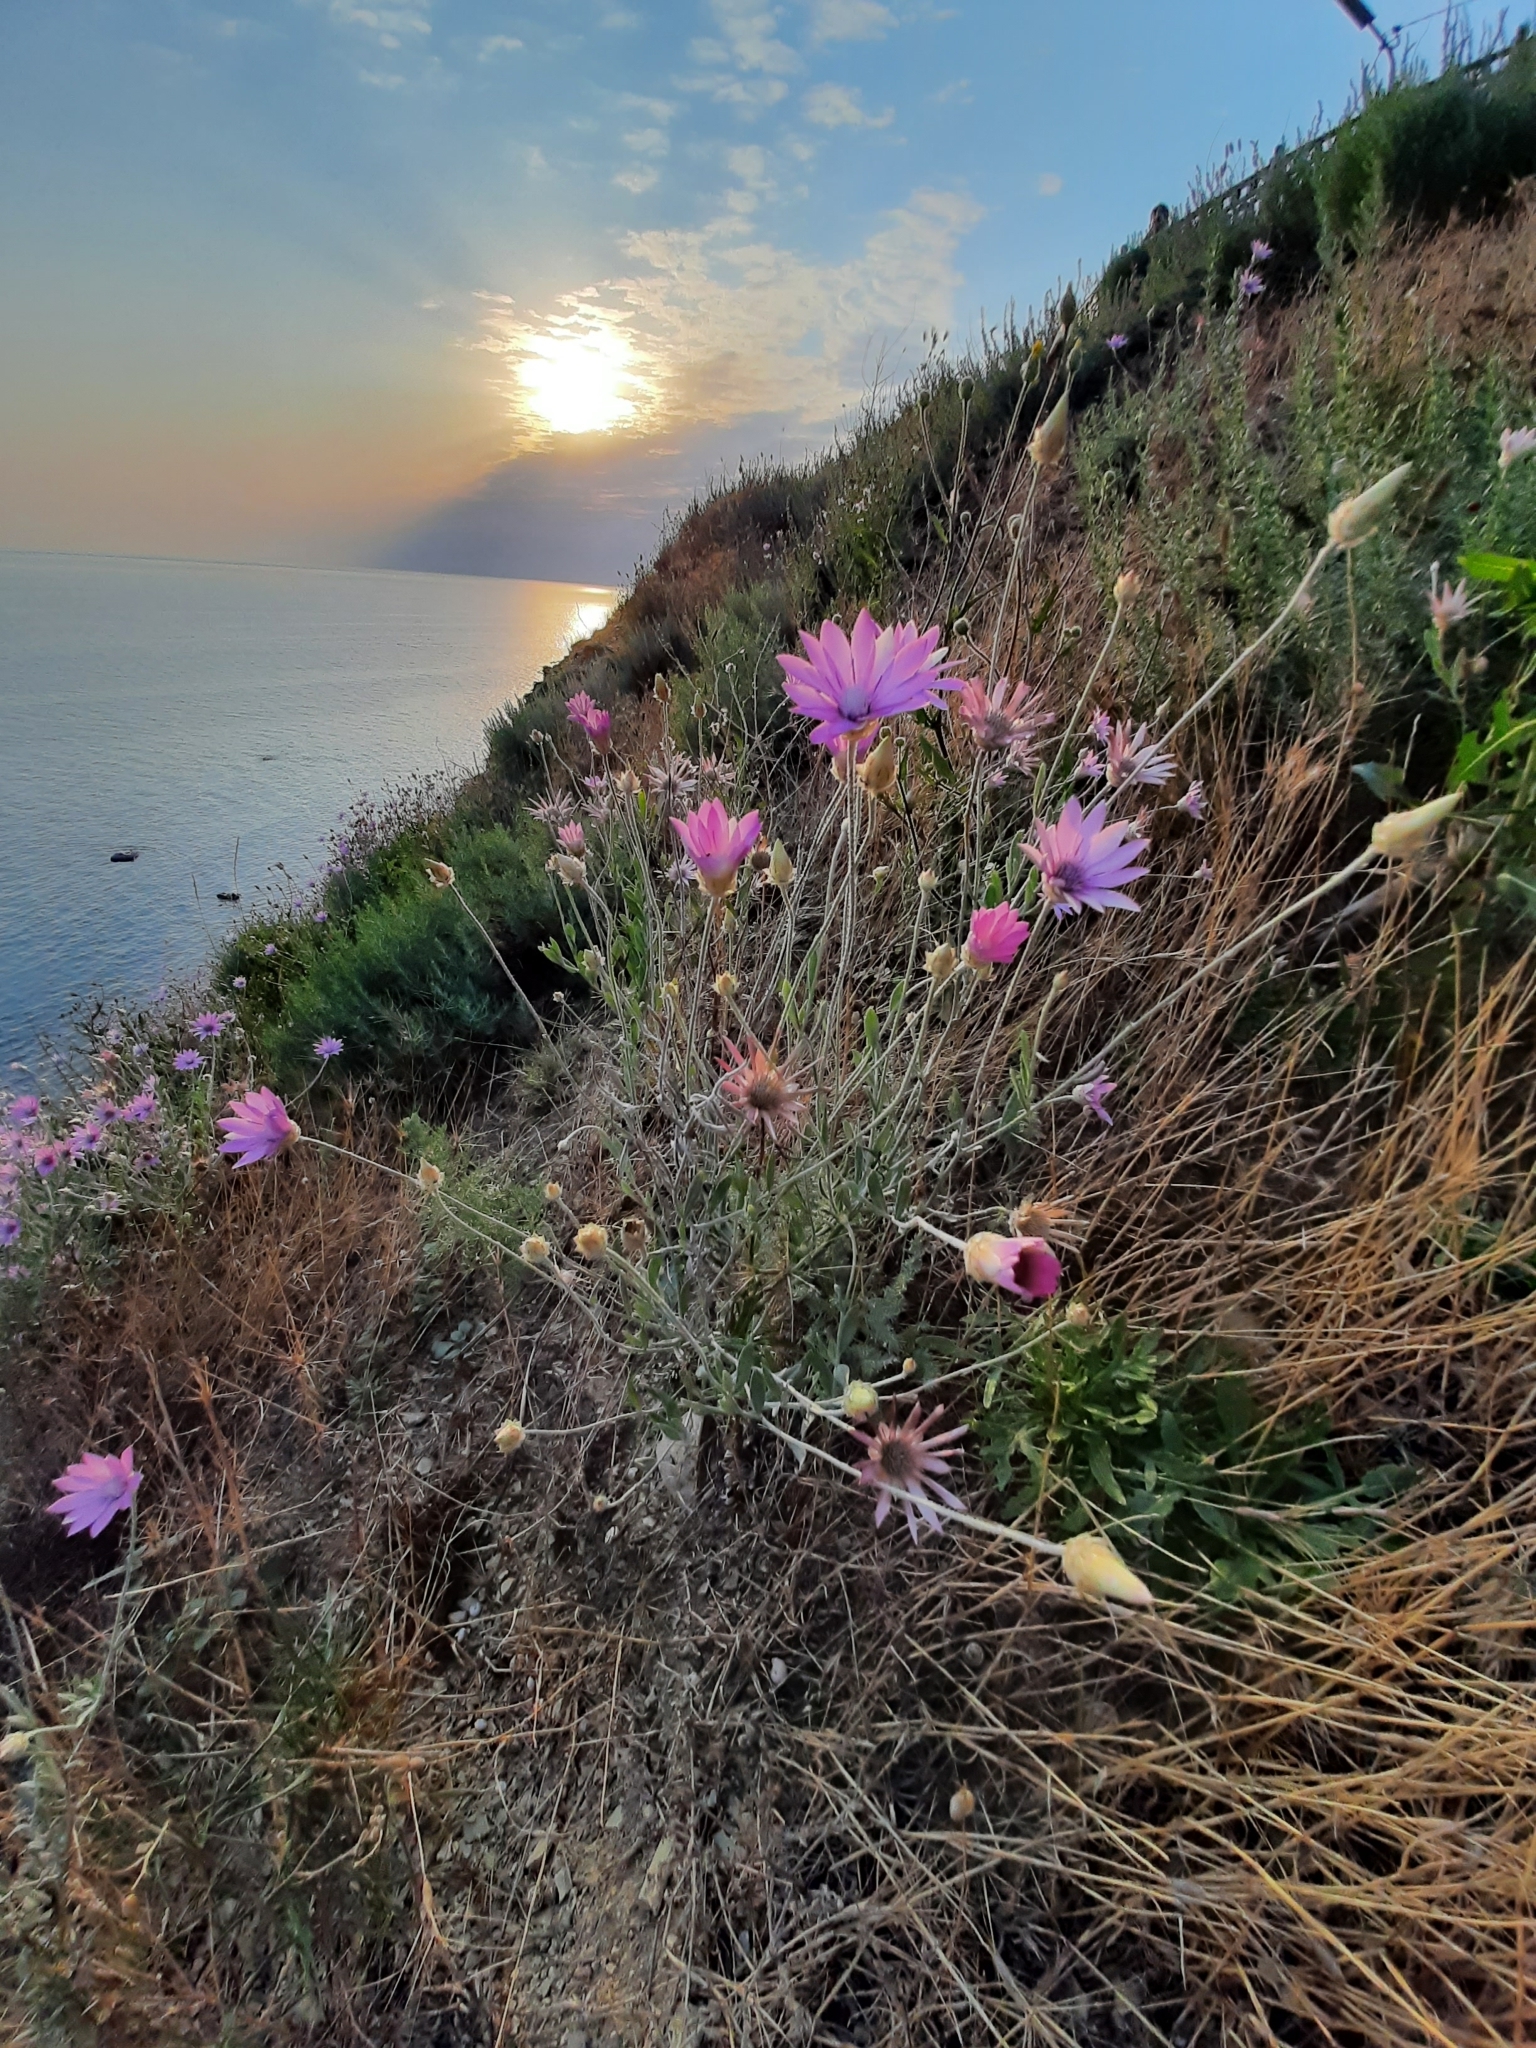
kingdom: Plantae
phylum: Tracheophyta
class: Magnoliopsida
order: Asterales
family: Asteraceae
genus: Xeranthemum
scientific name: Xeranthemum annuum
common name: Immortelle
